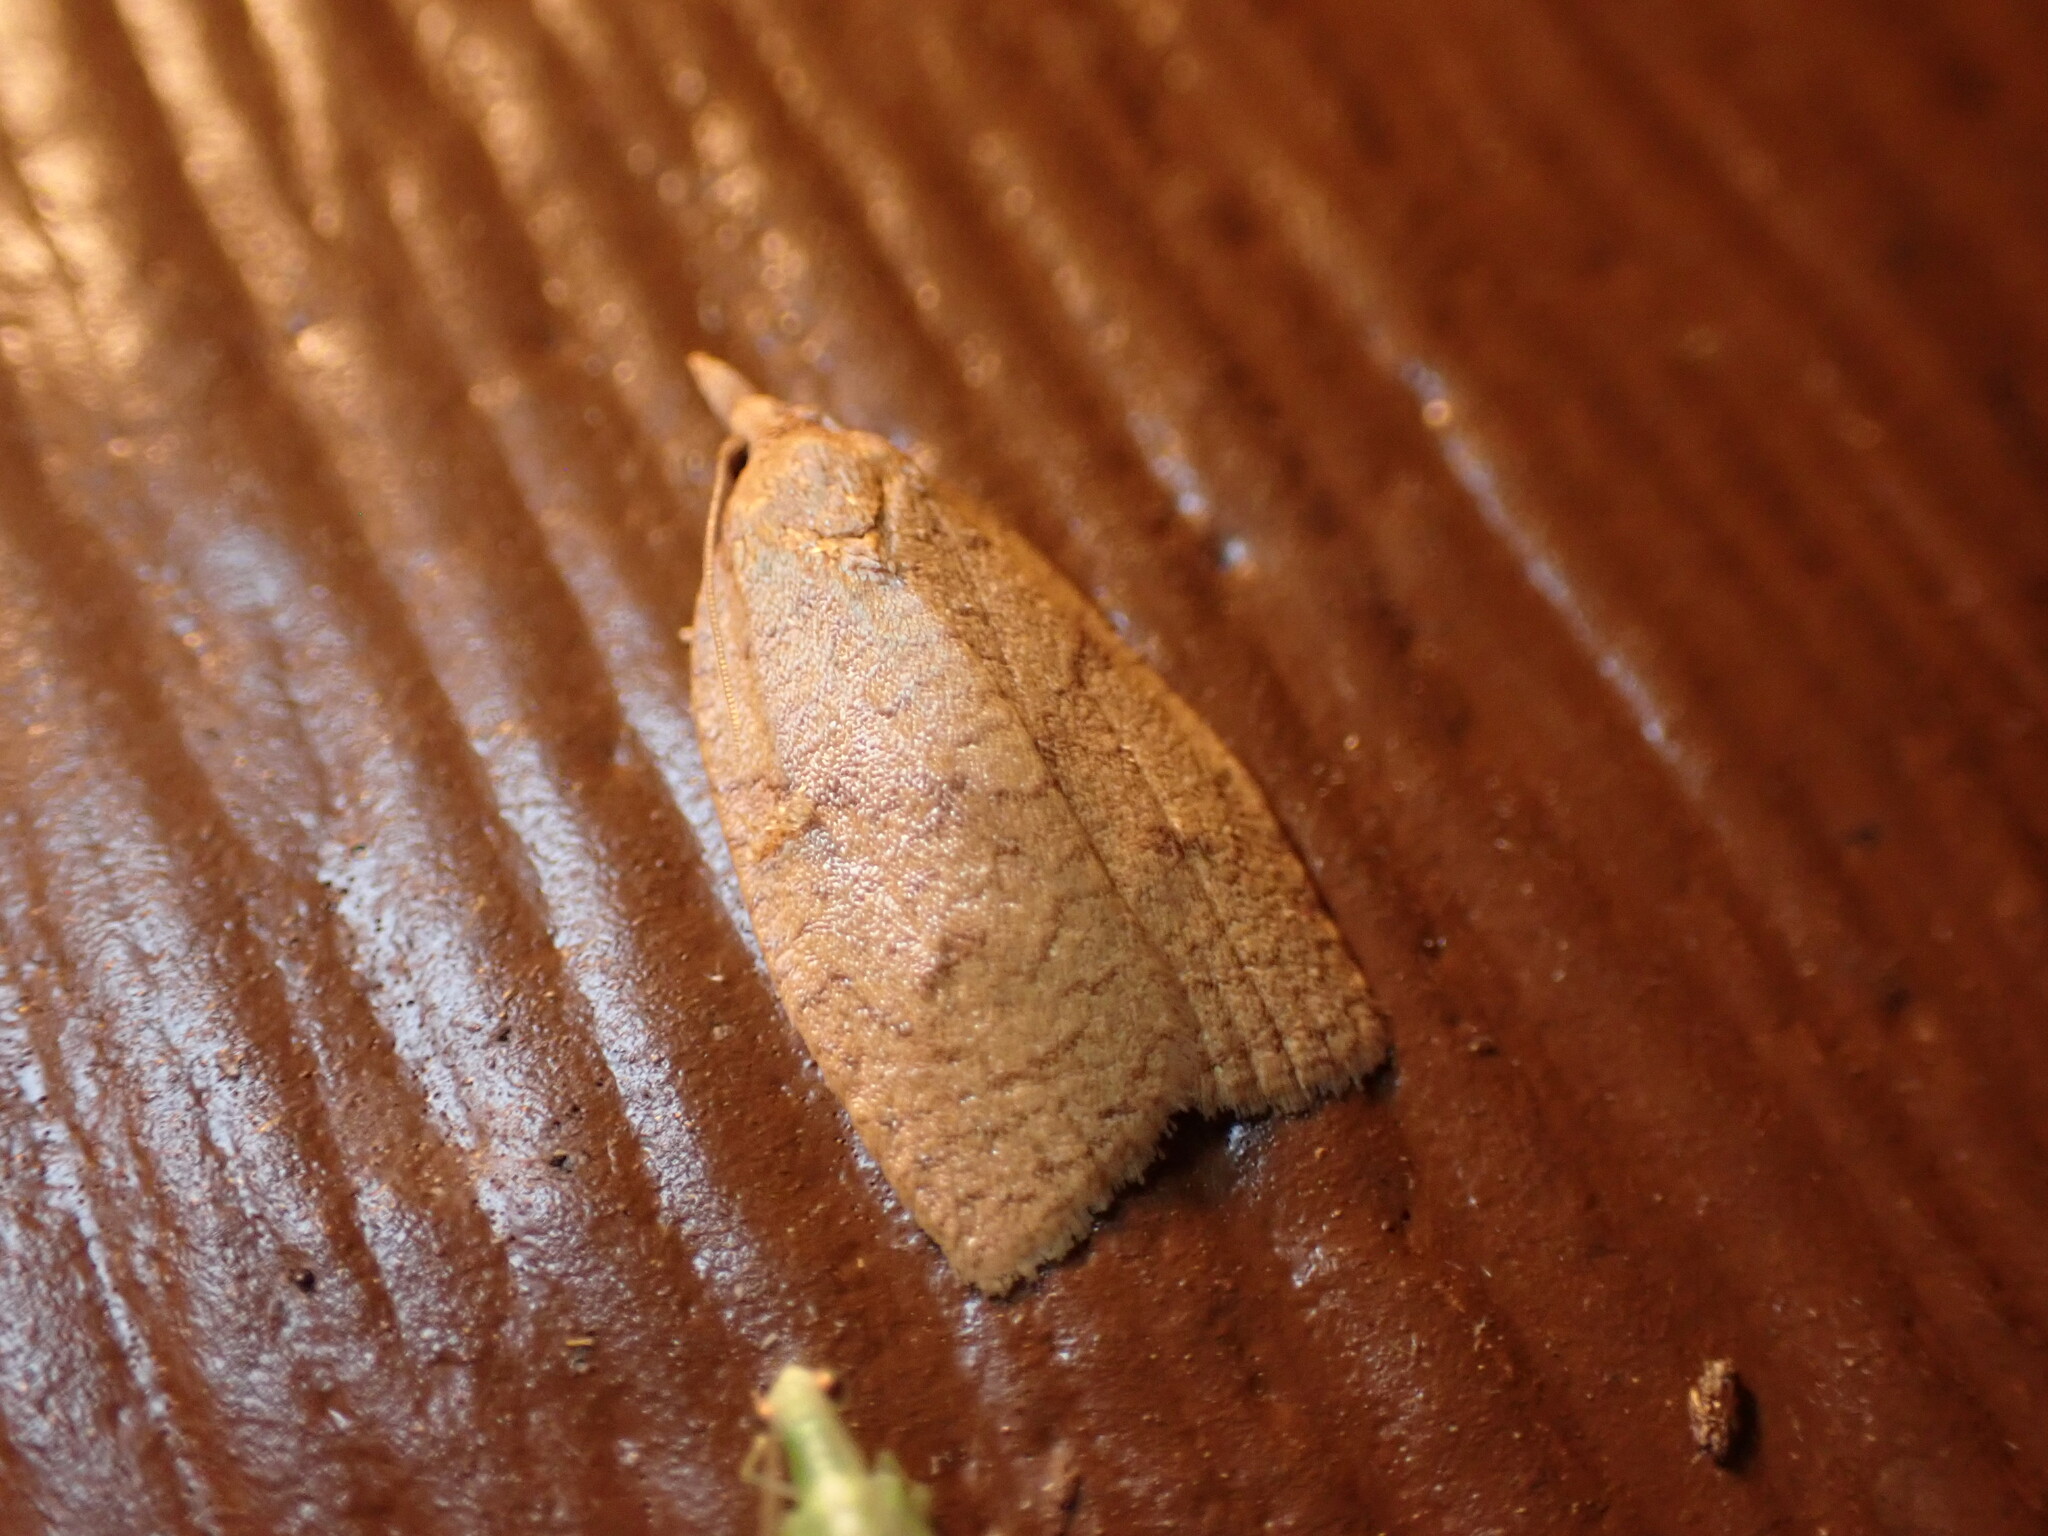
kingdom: Animalia
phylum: Arthropoda
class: Insecta
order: Lepidoptera
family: Tortricidae
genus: Cenopis
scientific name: Cenopis directana
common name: Chokecherry leafroller moth
